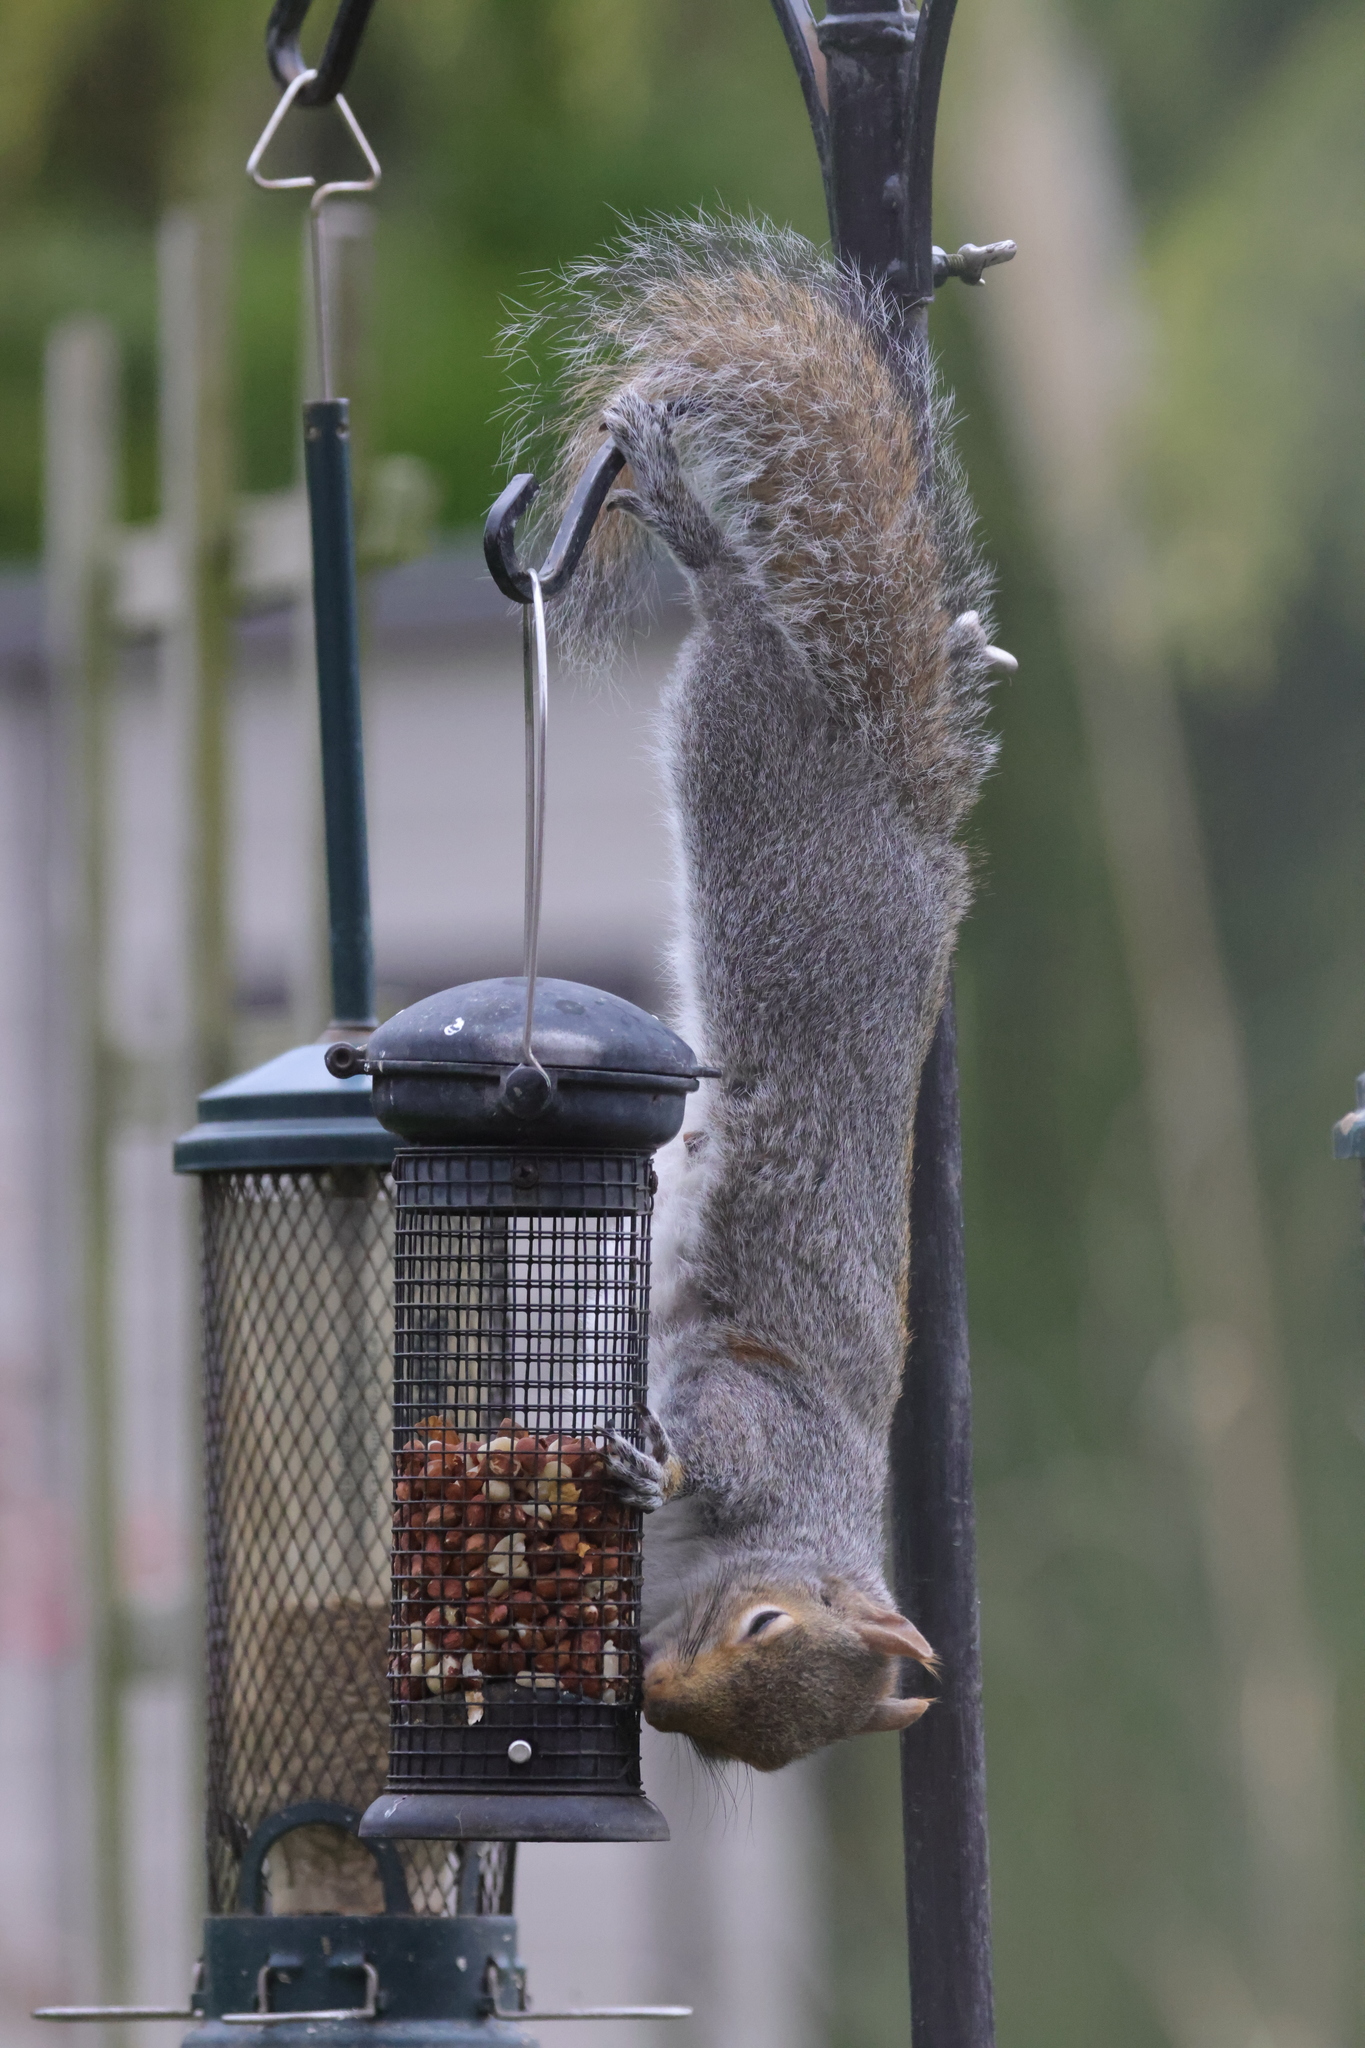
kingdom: Animalia
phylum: Chordata
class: Mammalia
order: Rodentia
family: Sciuridae
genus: Sciurus
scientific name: Sciurus carolinensis
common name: Eastern gray squirrel
